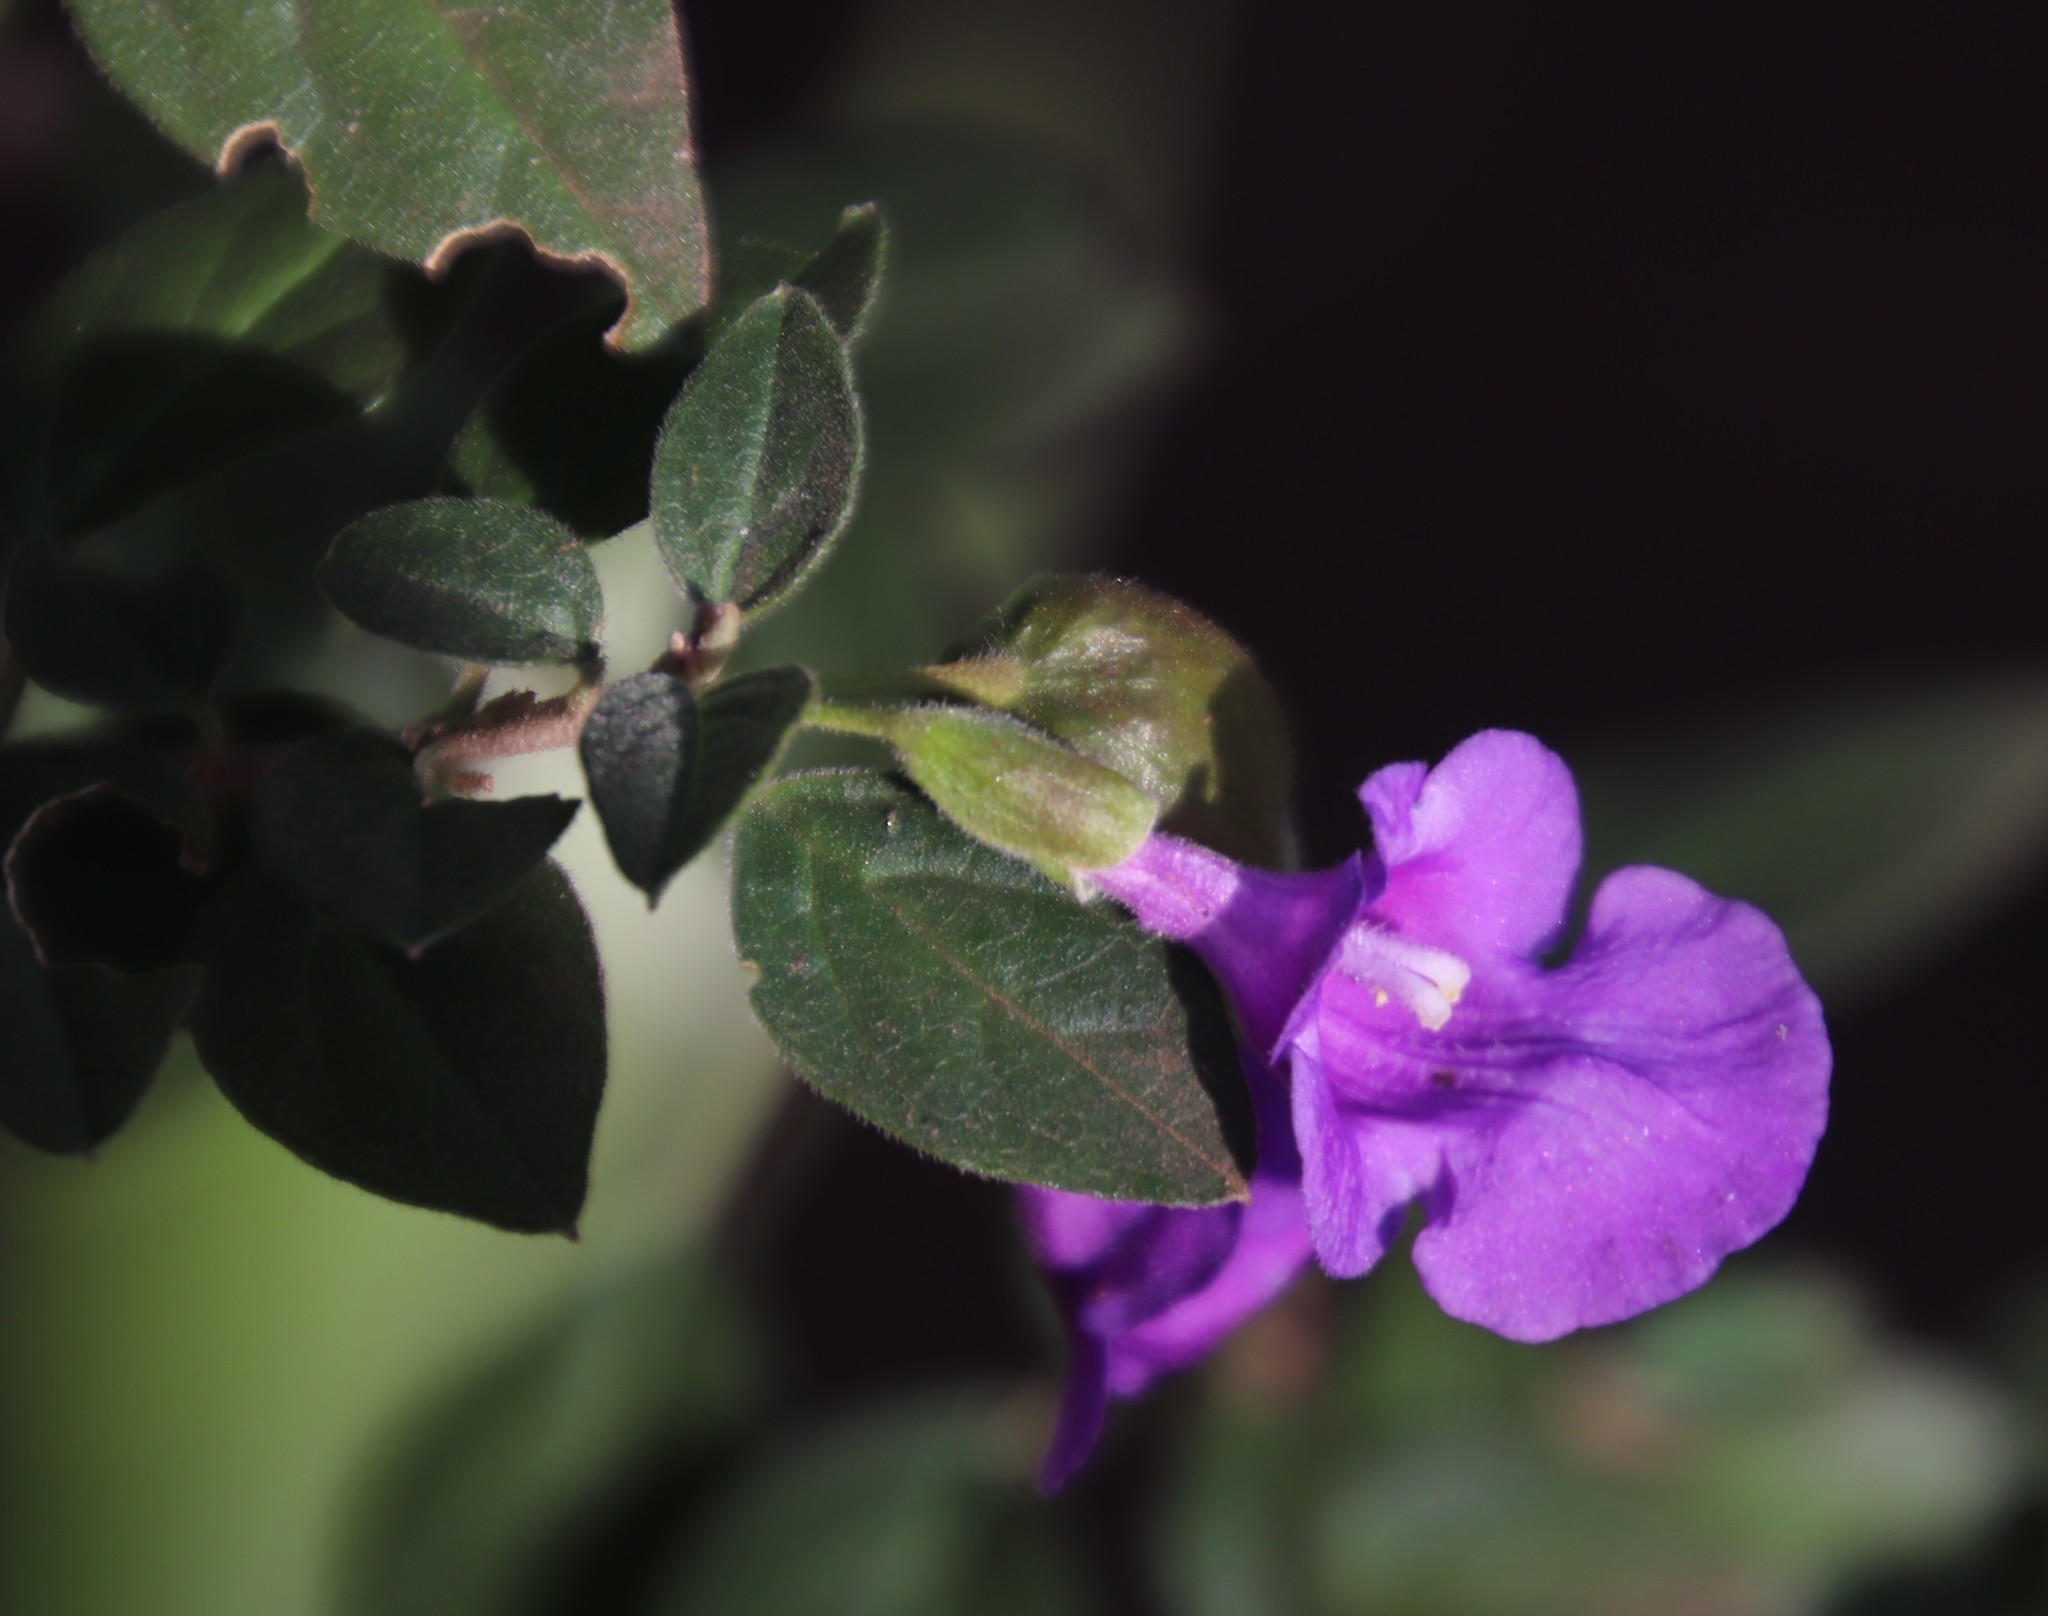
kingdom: Plantae
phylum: Tracheophyta
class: Magnoliopsida
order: Lamiales
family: Lamiaceae
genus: Tinnea
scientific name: Tinnea barbata
